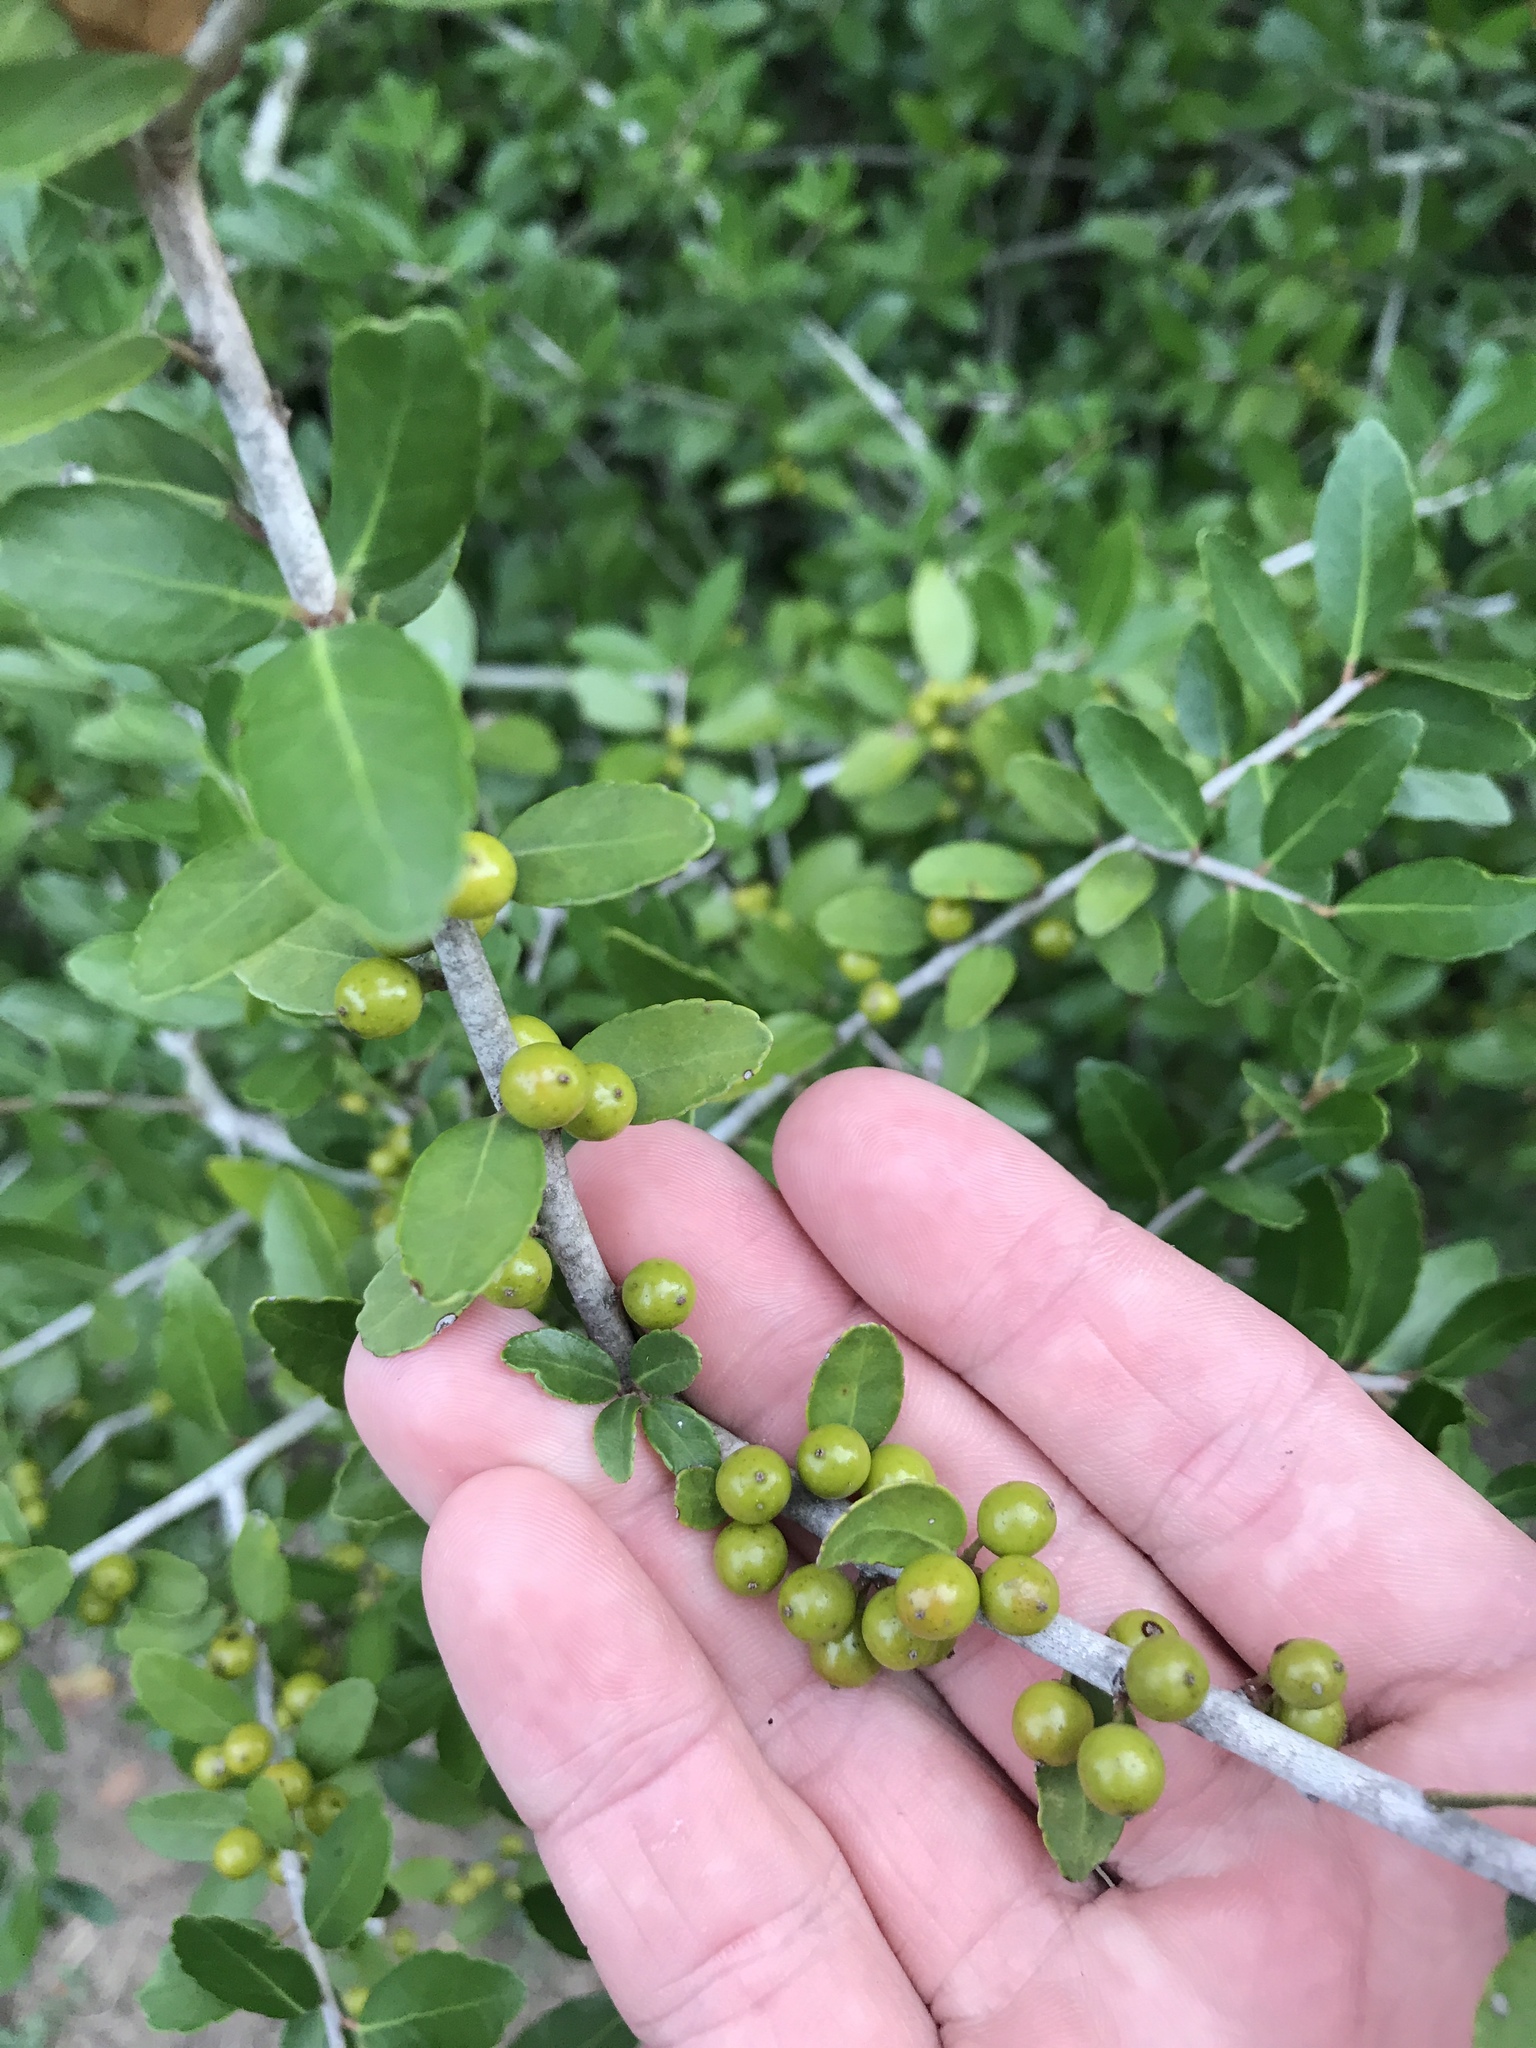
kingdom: Plantae
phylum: Tracheophyta
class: Magnoliopsida
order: Aquifoliales
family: Aquifoliaceae
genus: Ilex
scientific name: Ilex vomitoria
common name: Yaupon holly
